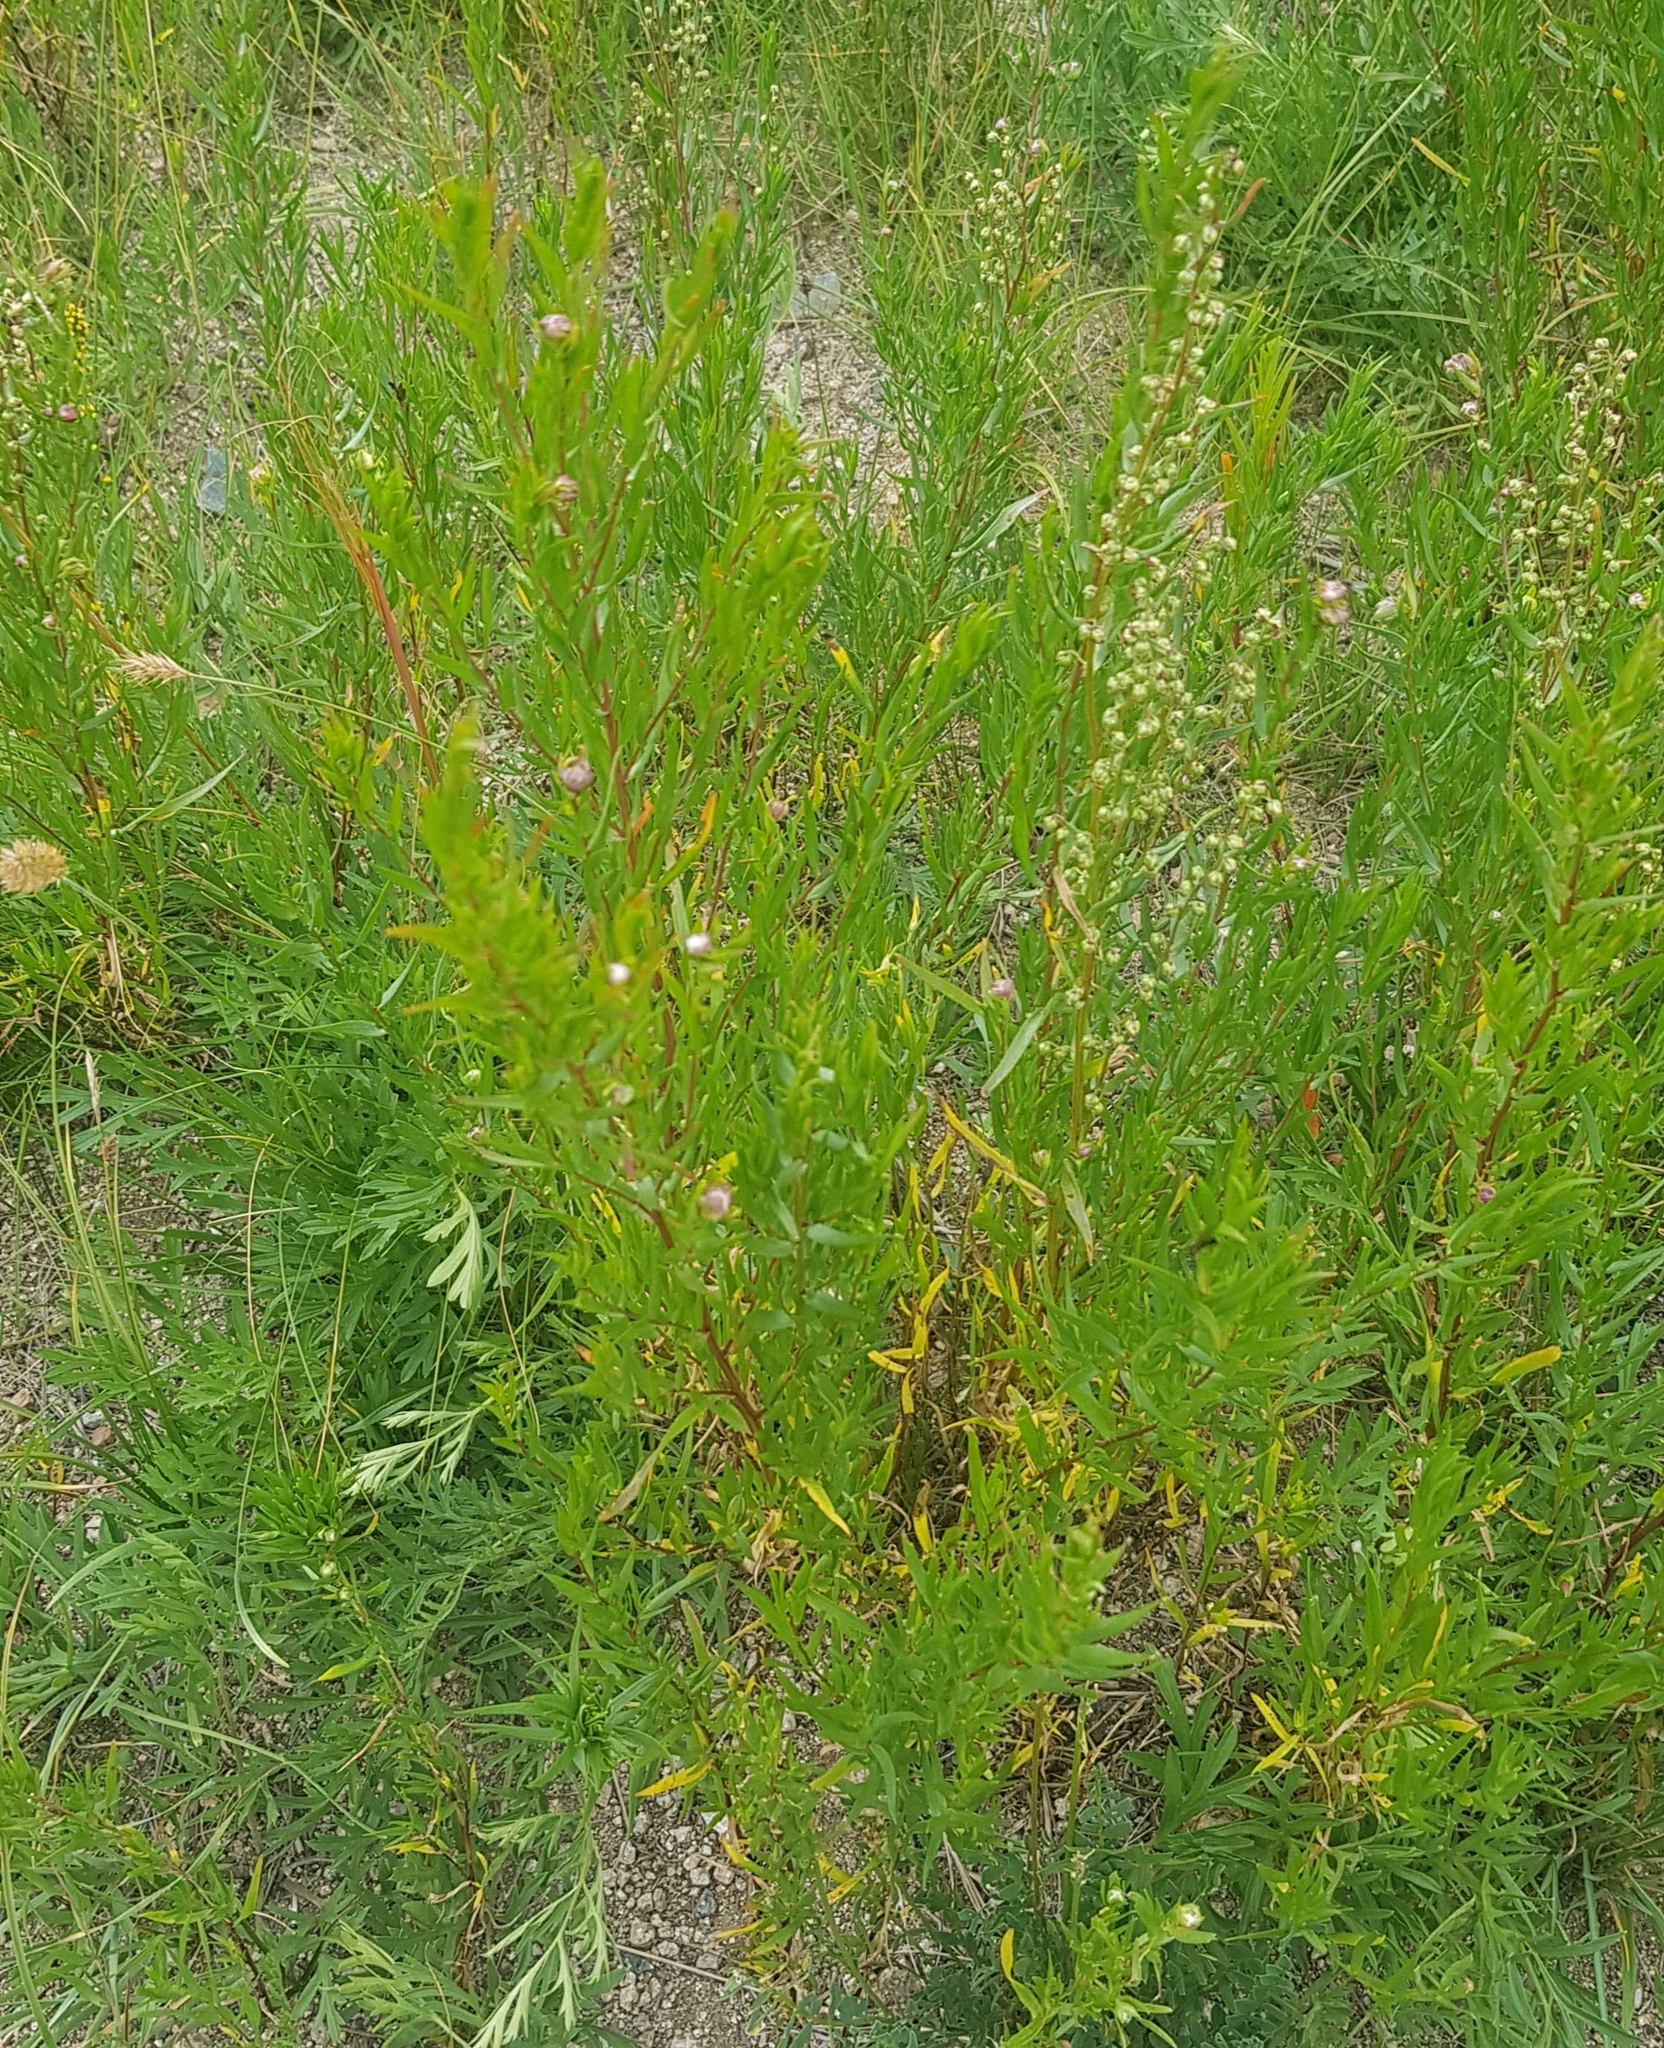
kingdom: Plantae
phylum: Tracheophyta
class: Magnoliopsida
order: Asterales
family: Asteraceae
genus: Artemisia
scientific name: Artemisia dracunculus
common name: Tarragon
